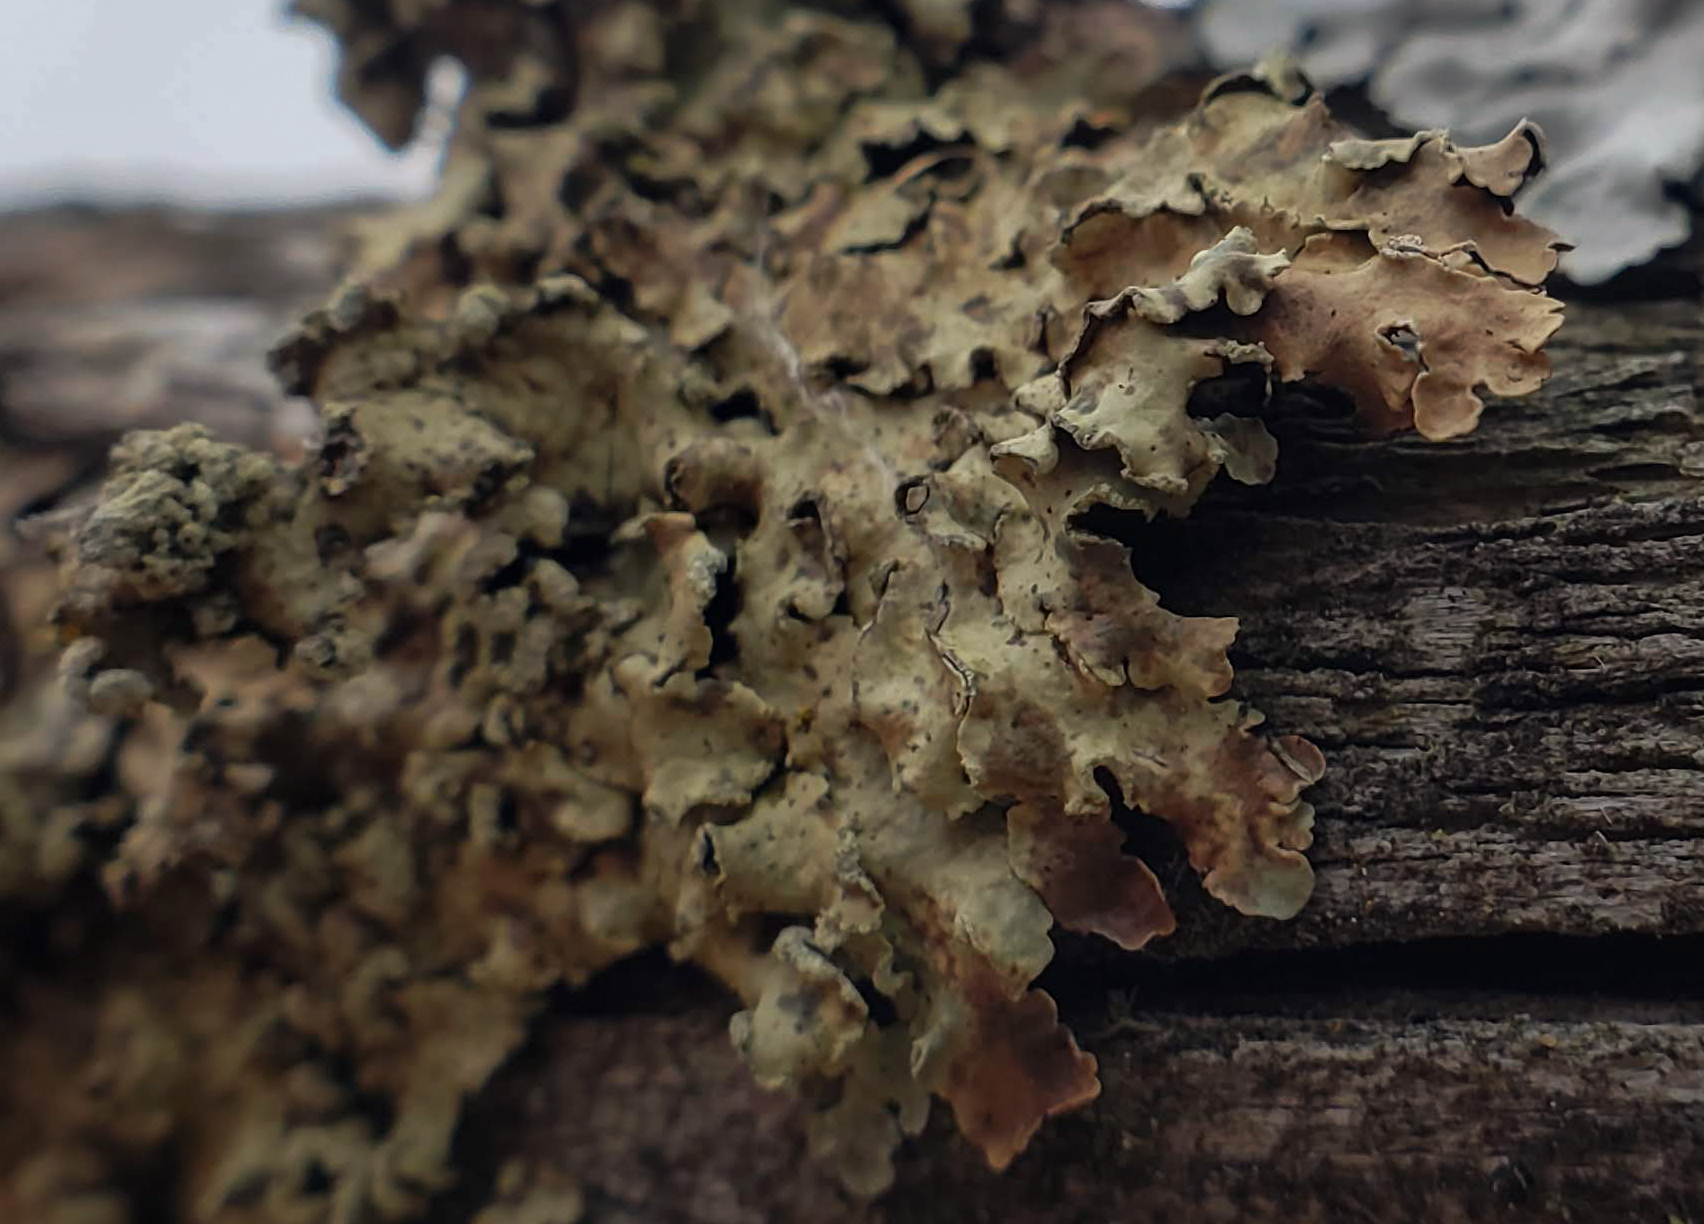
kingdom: Fungi
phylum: Ascomycota
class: Lecanoromycetes
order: Lecanorales
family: Parmeliaceae
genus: Flavopunctelia
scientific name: Flavopunctelia soredica
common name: Powder-edged speckled greenshield
